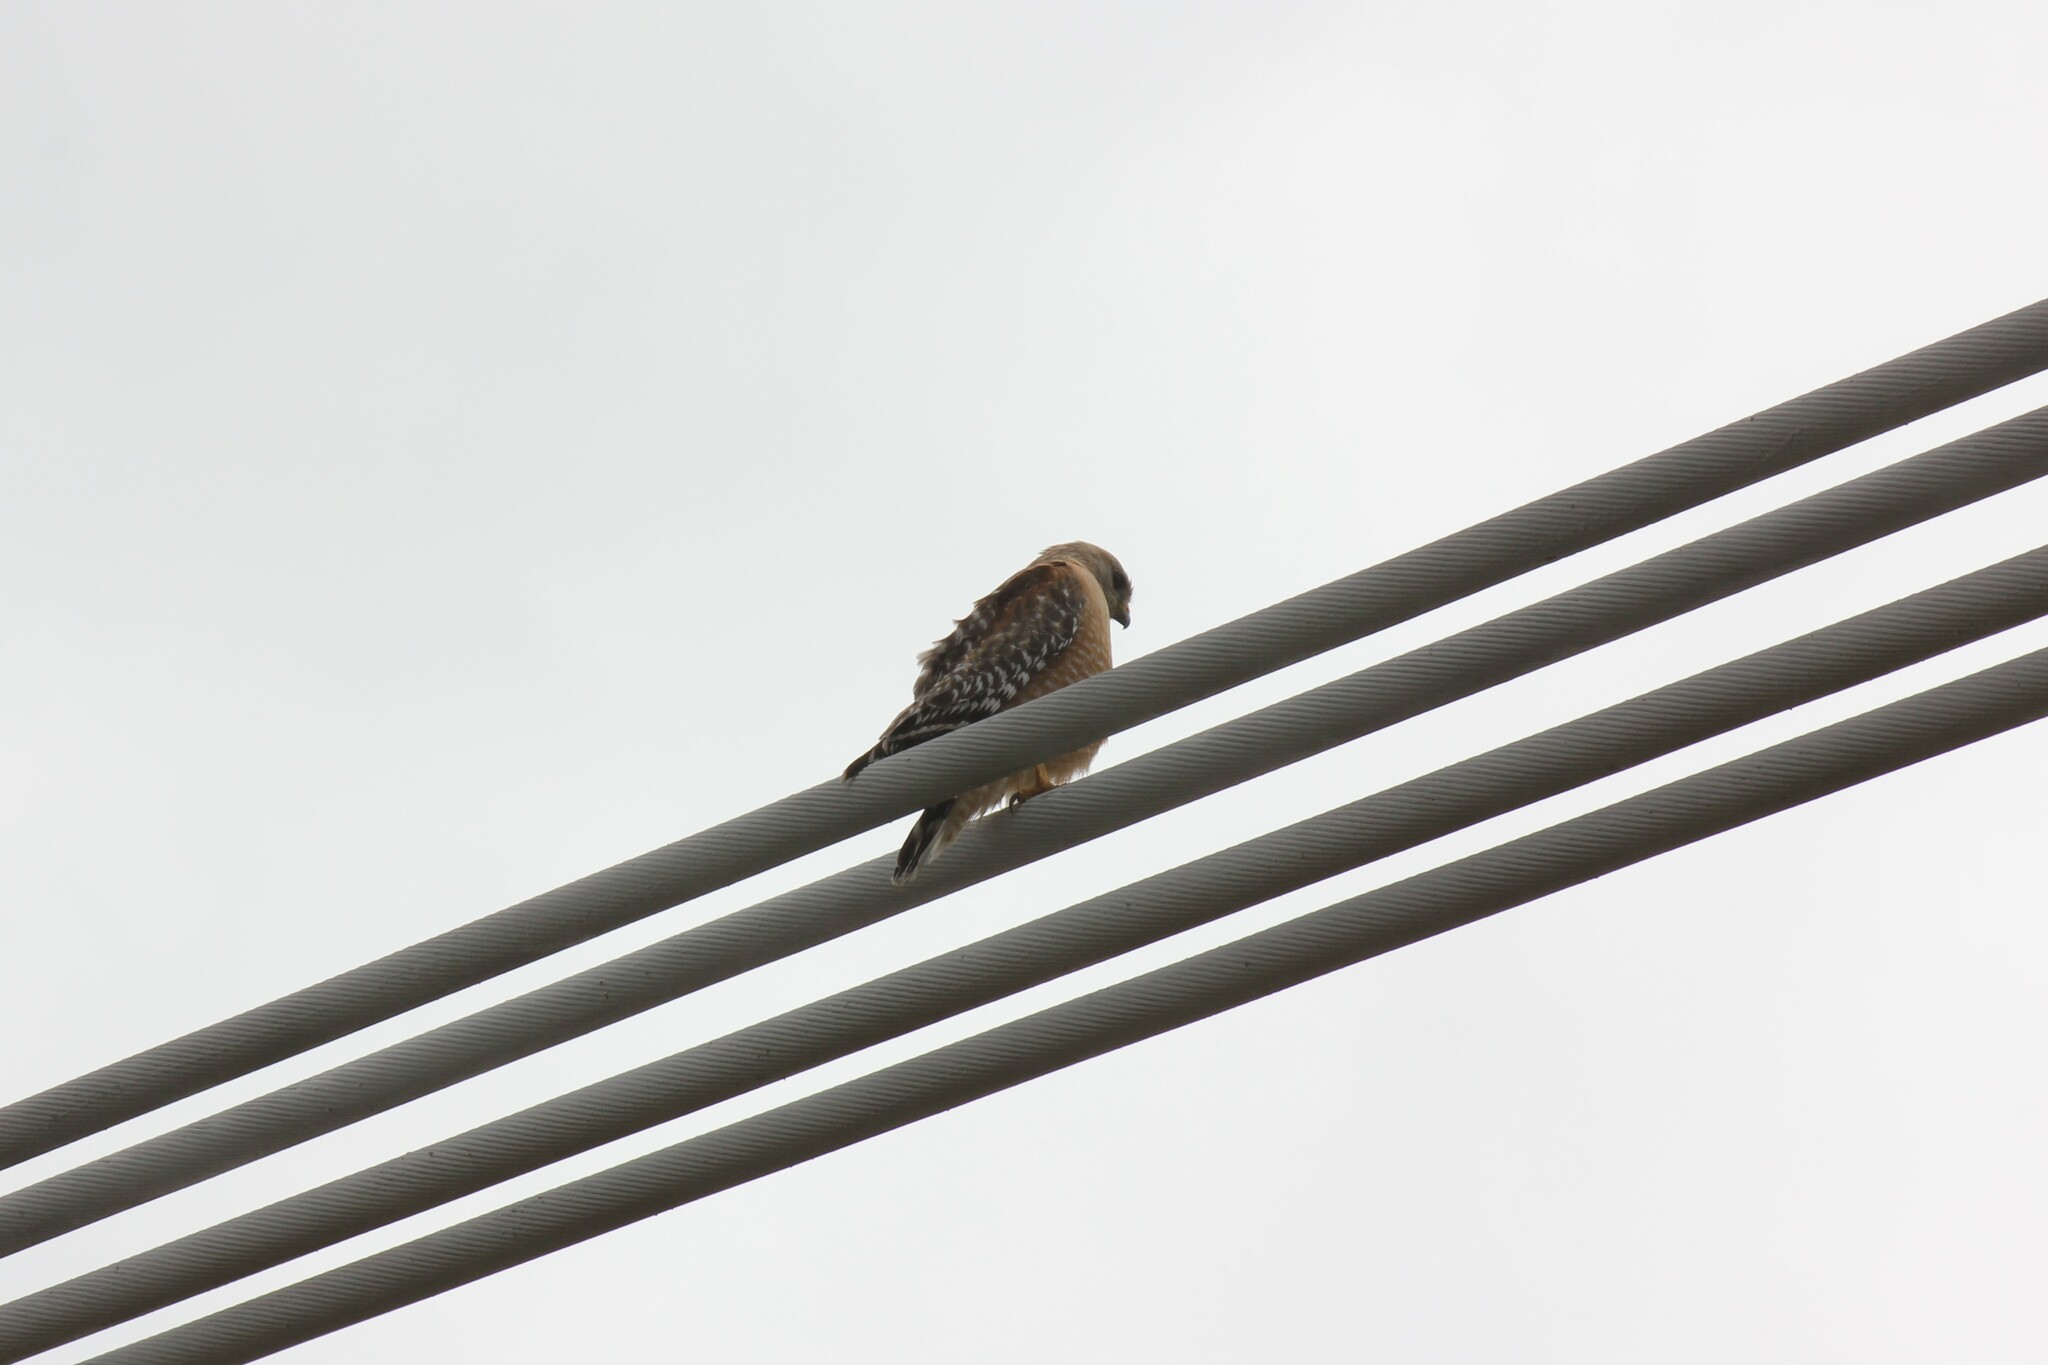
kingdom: Animalia
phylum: Chordata
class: Aves
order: Accipitriformes
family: Accipitridae
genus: Buteo
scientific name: Buteo lineatus
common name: Red-shouldered hawk
